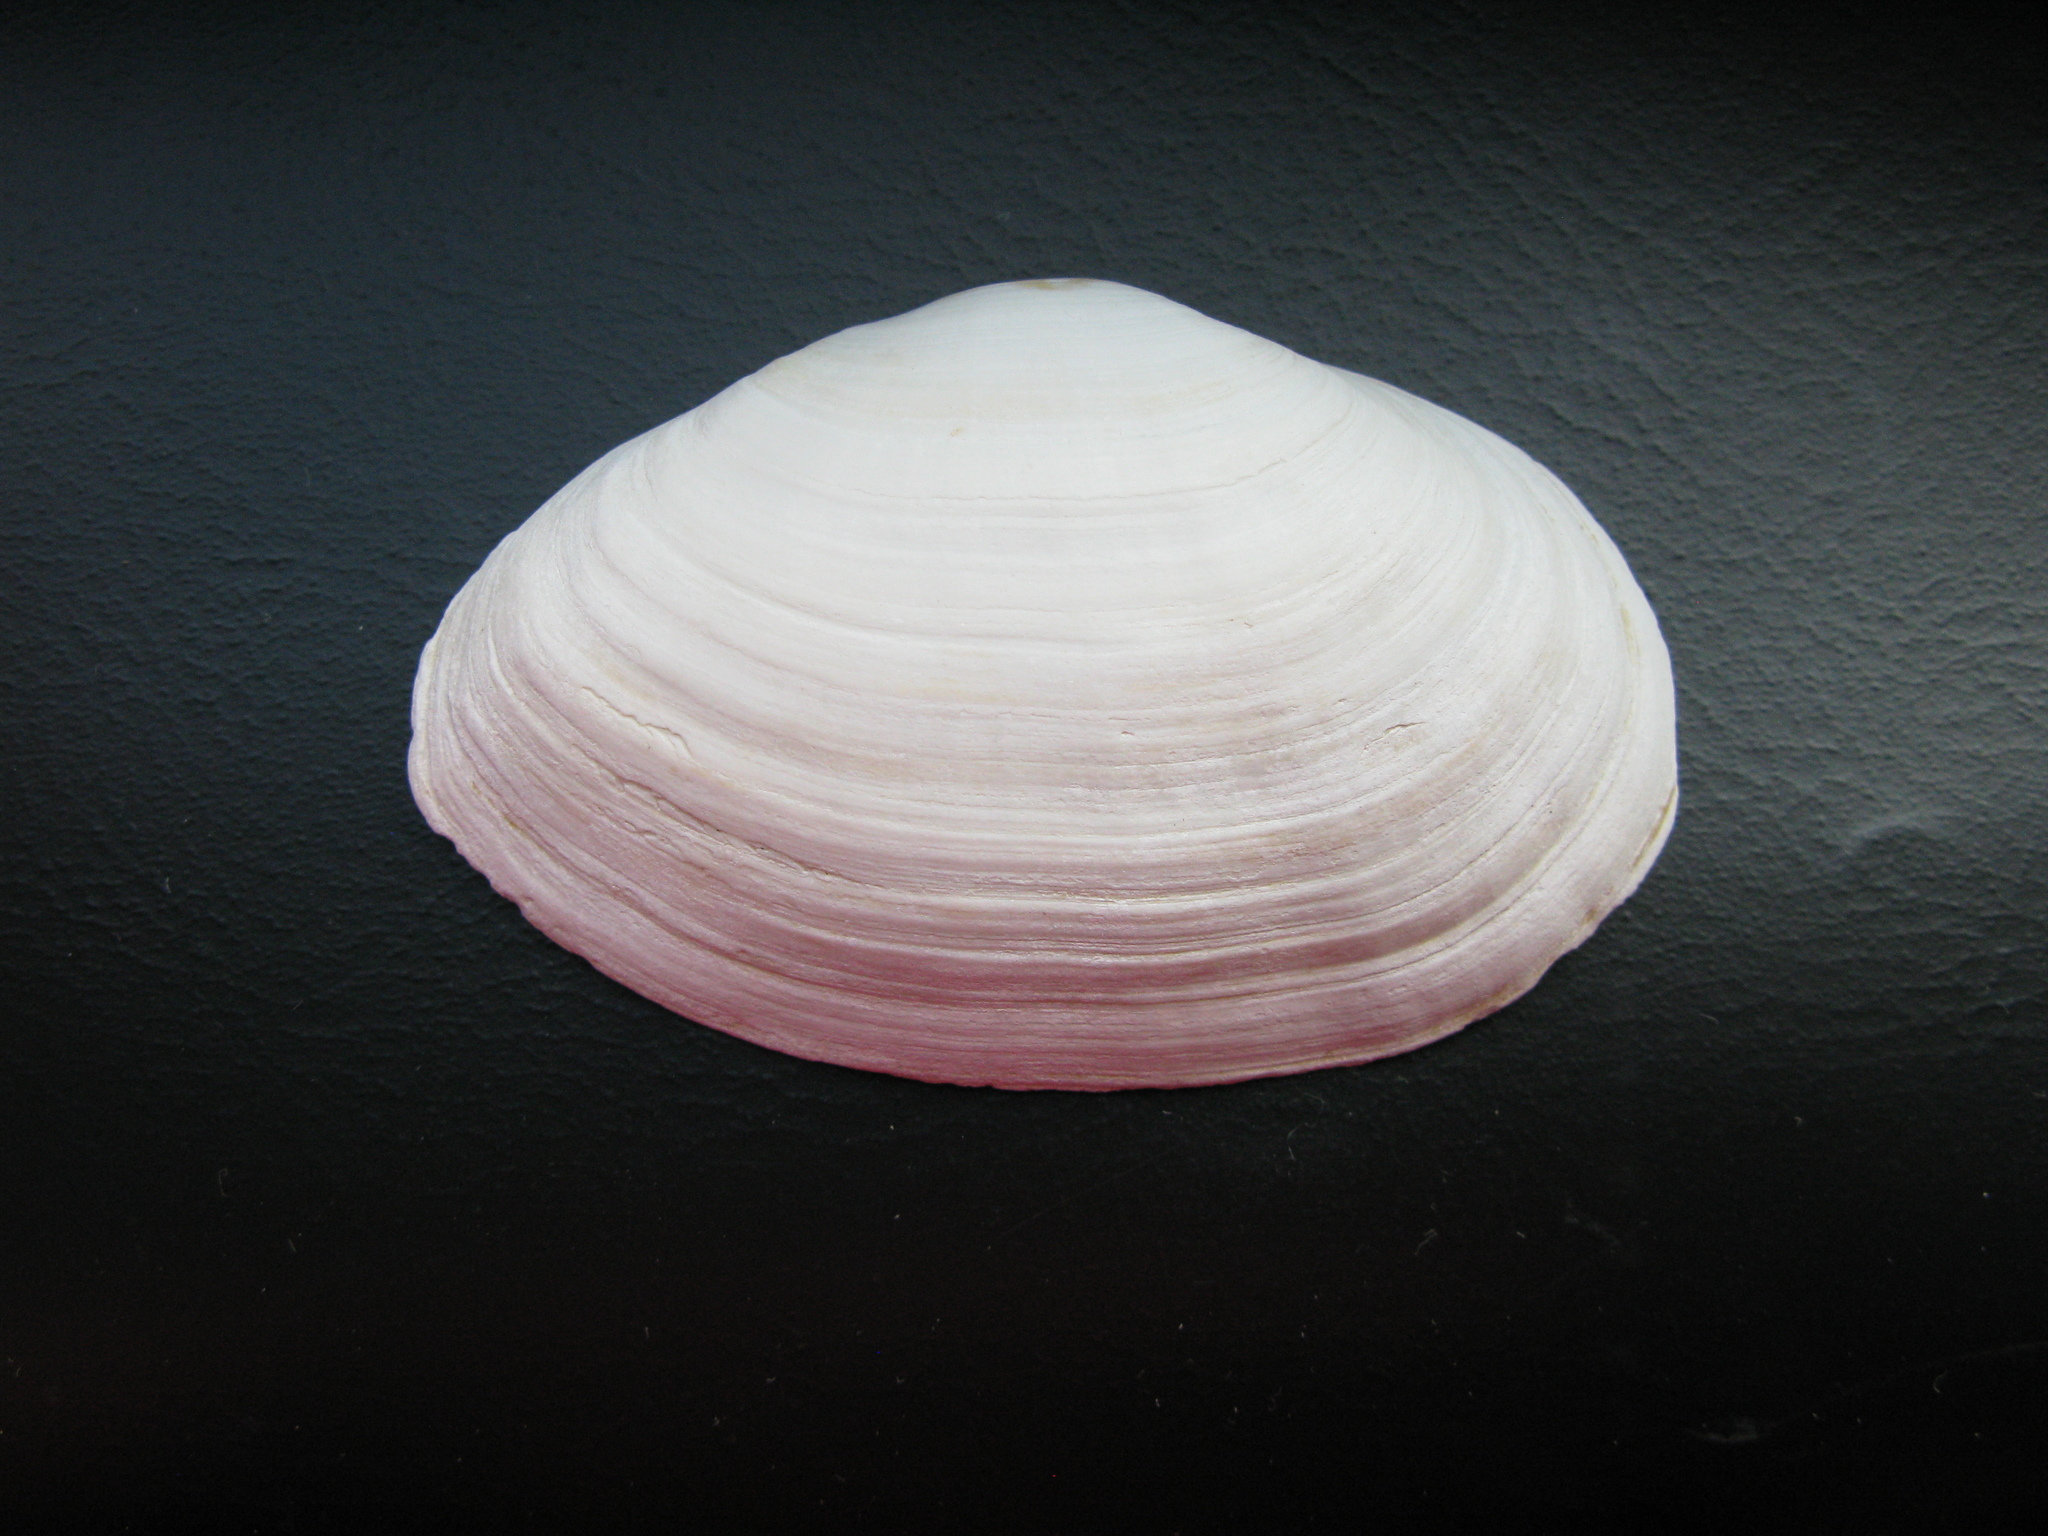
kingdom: Animalia
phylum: Mollusca
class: Bivalvia
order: Myida
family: Myidae
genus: Mya
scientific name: Mya arenaria
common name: Soft-shelled clam
